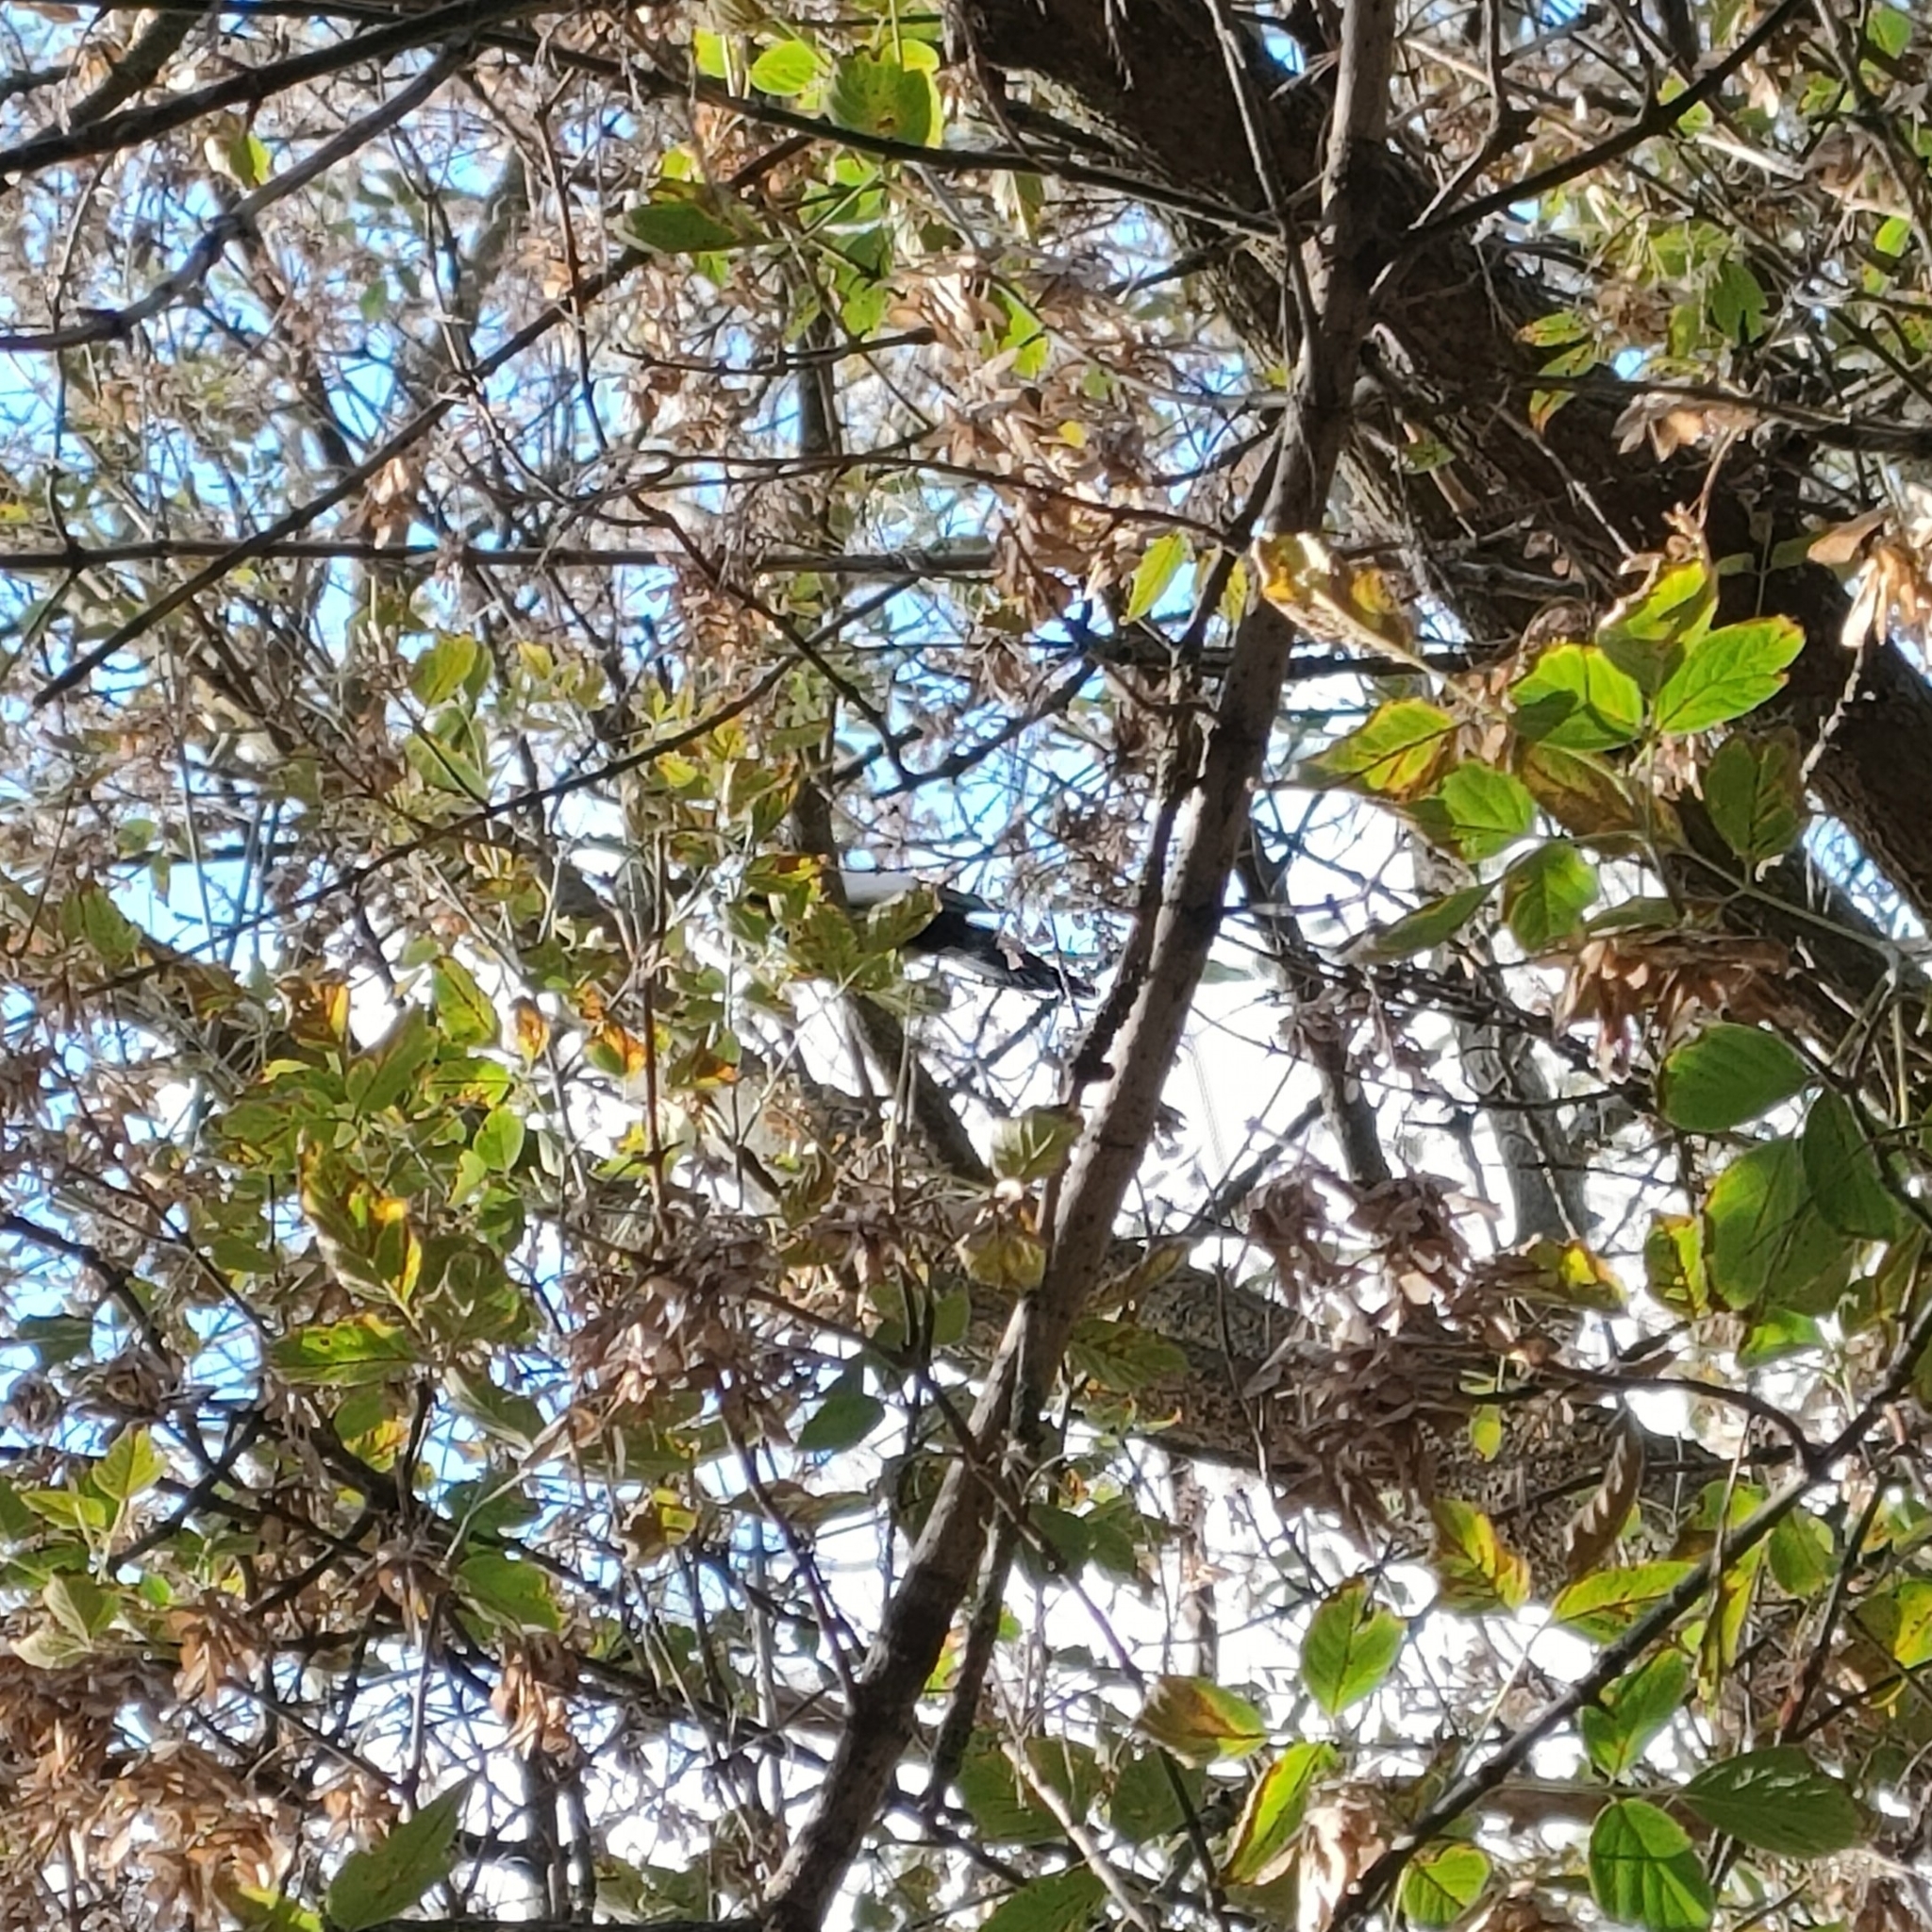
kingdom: Animalia
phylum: Chordata
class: Aves
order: Passeriformes
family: Corvidae
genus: Pica
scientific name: Pica pica
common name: Eurasian magpie
